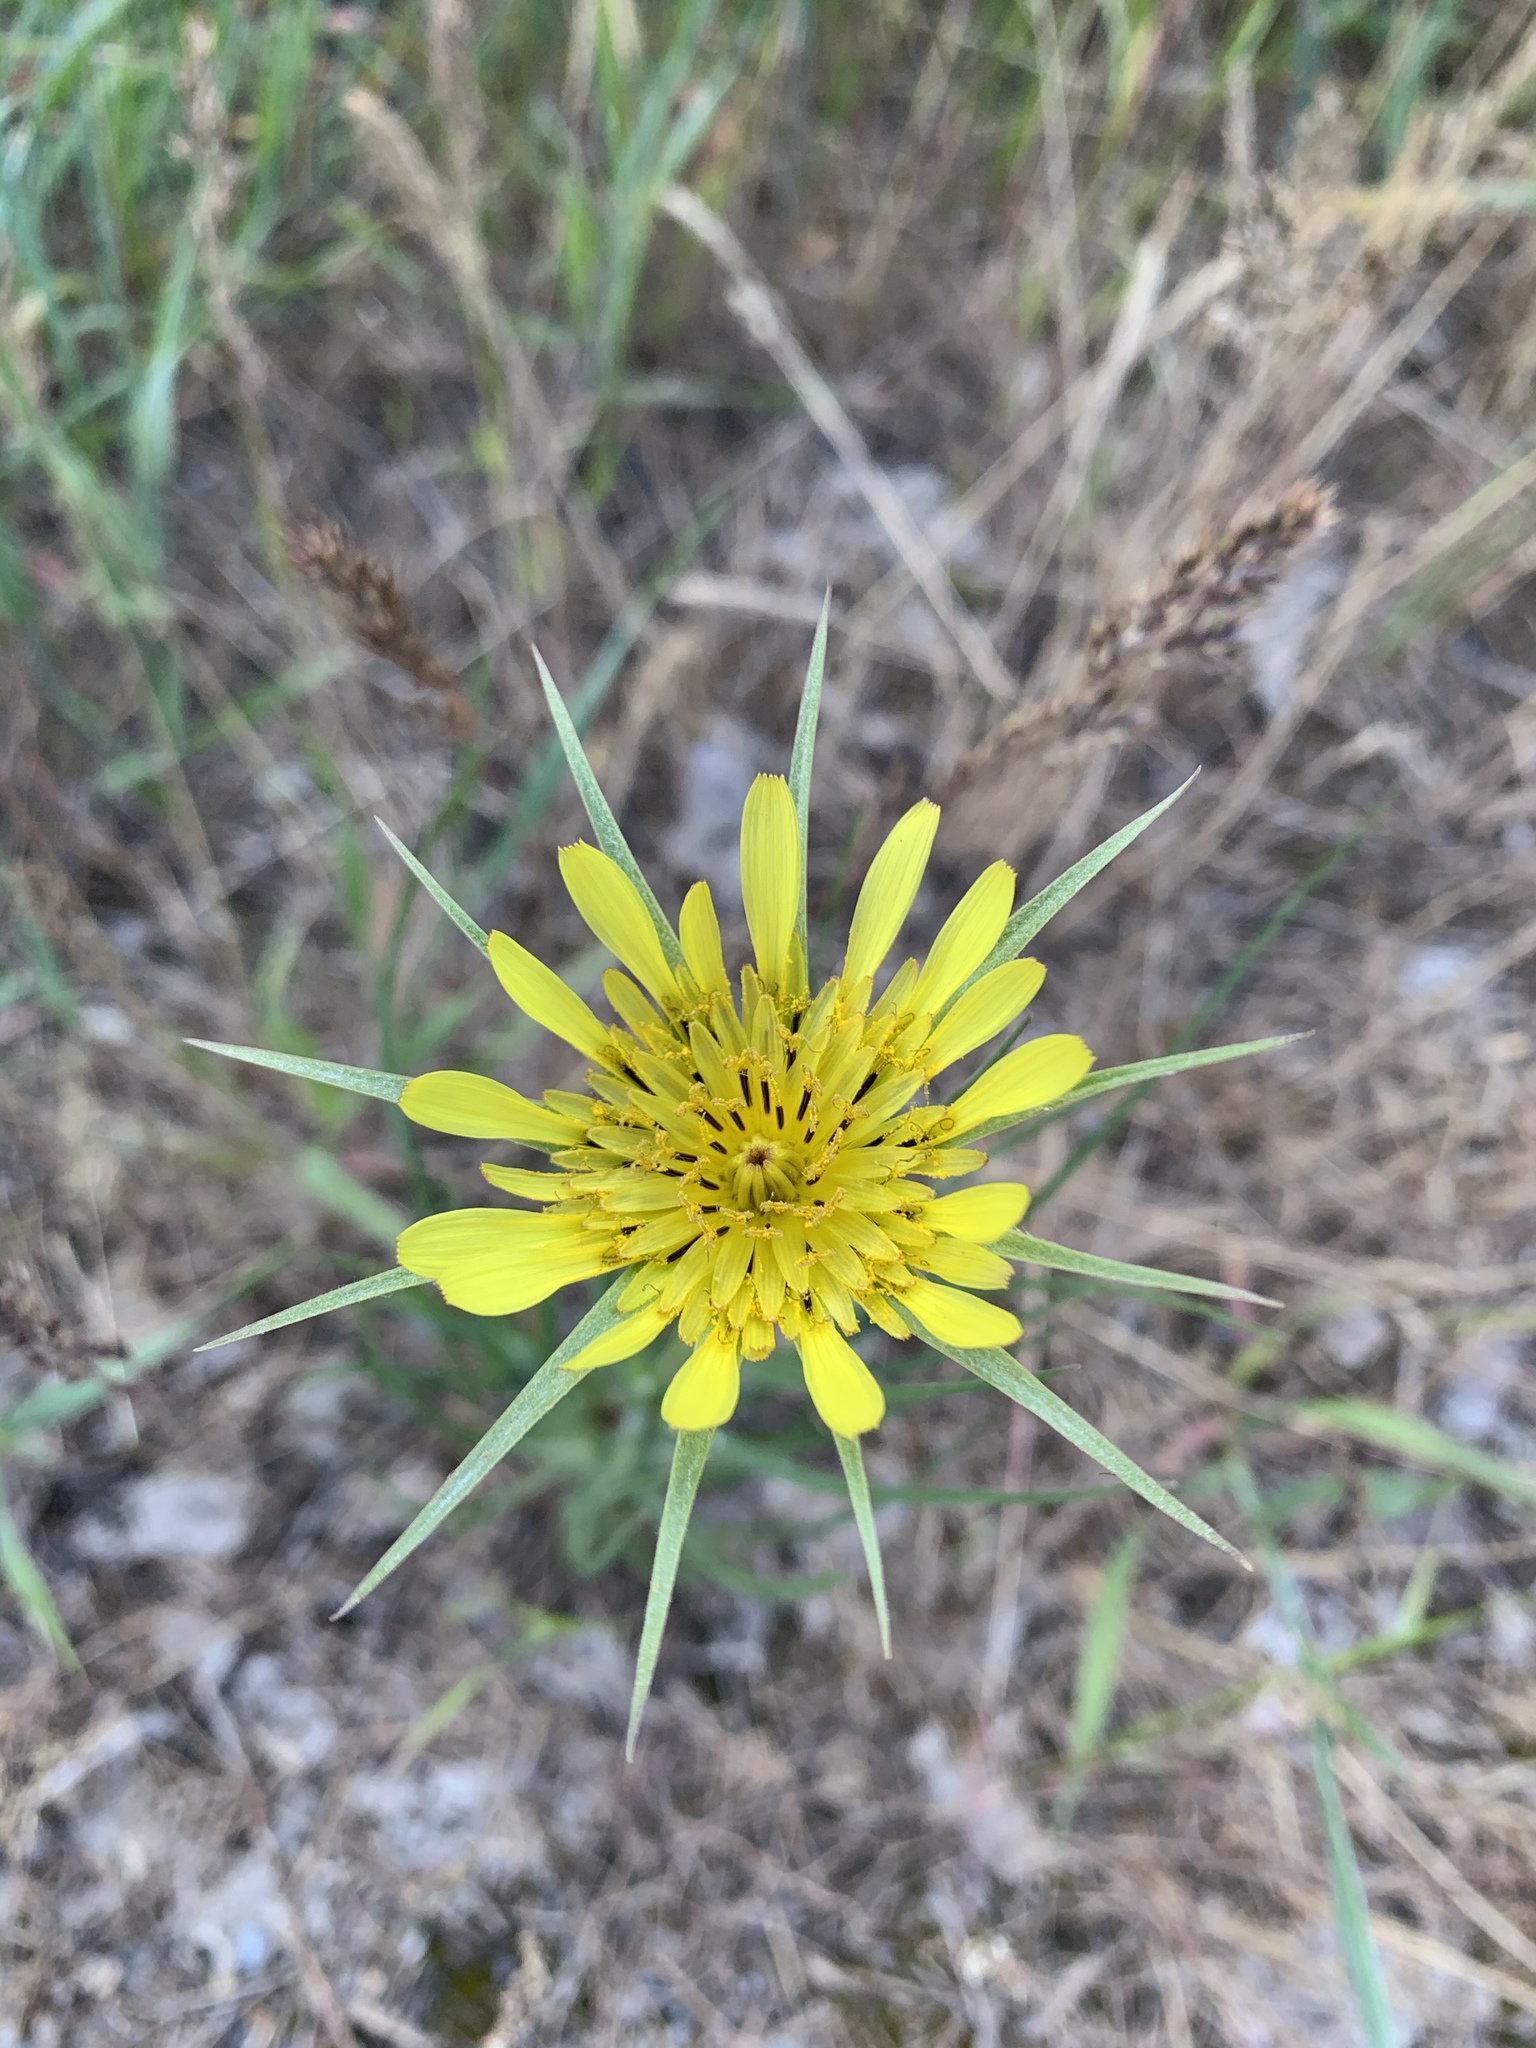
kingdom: Plantae
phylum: Tracheophyta
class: Magnoliopsida
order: Asterales
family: Asteraceae
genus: Tragopogon
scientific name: Tragopogon dubius
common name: Yellow salsify
